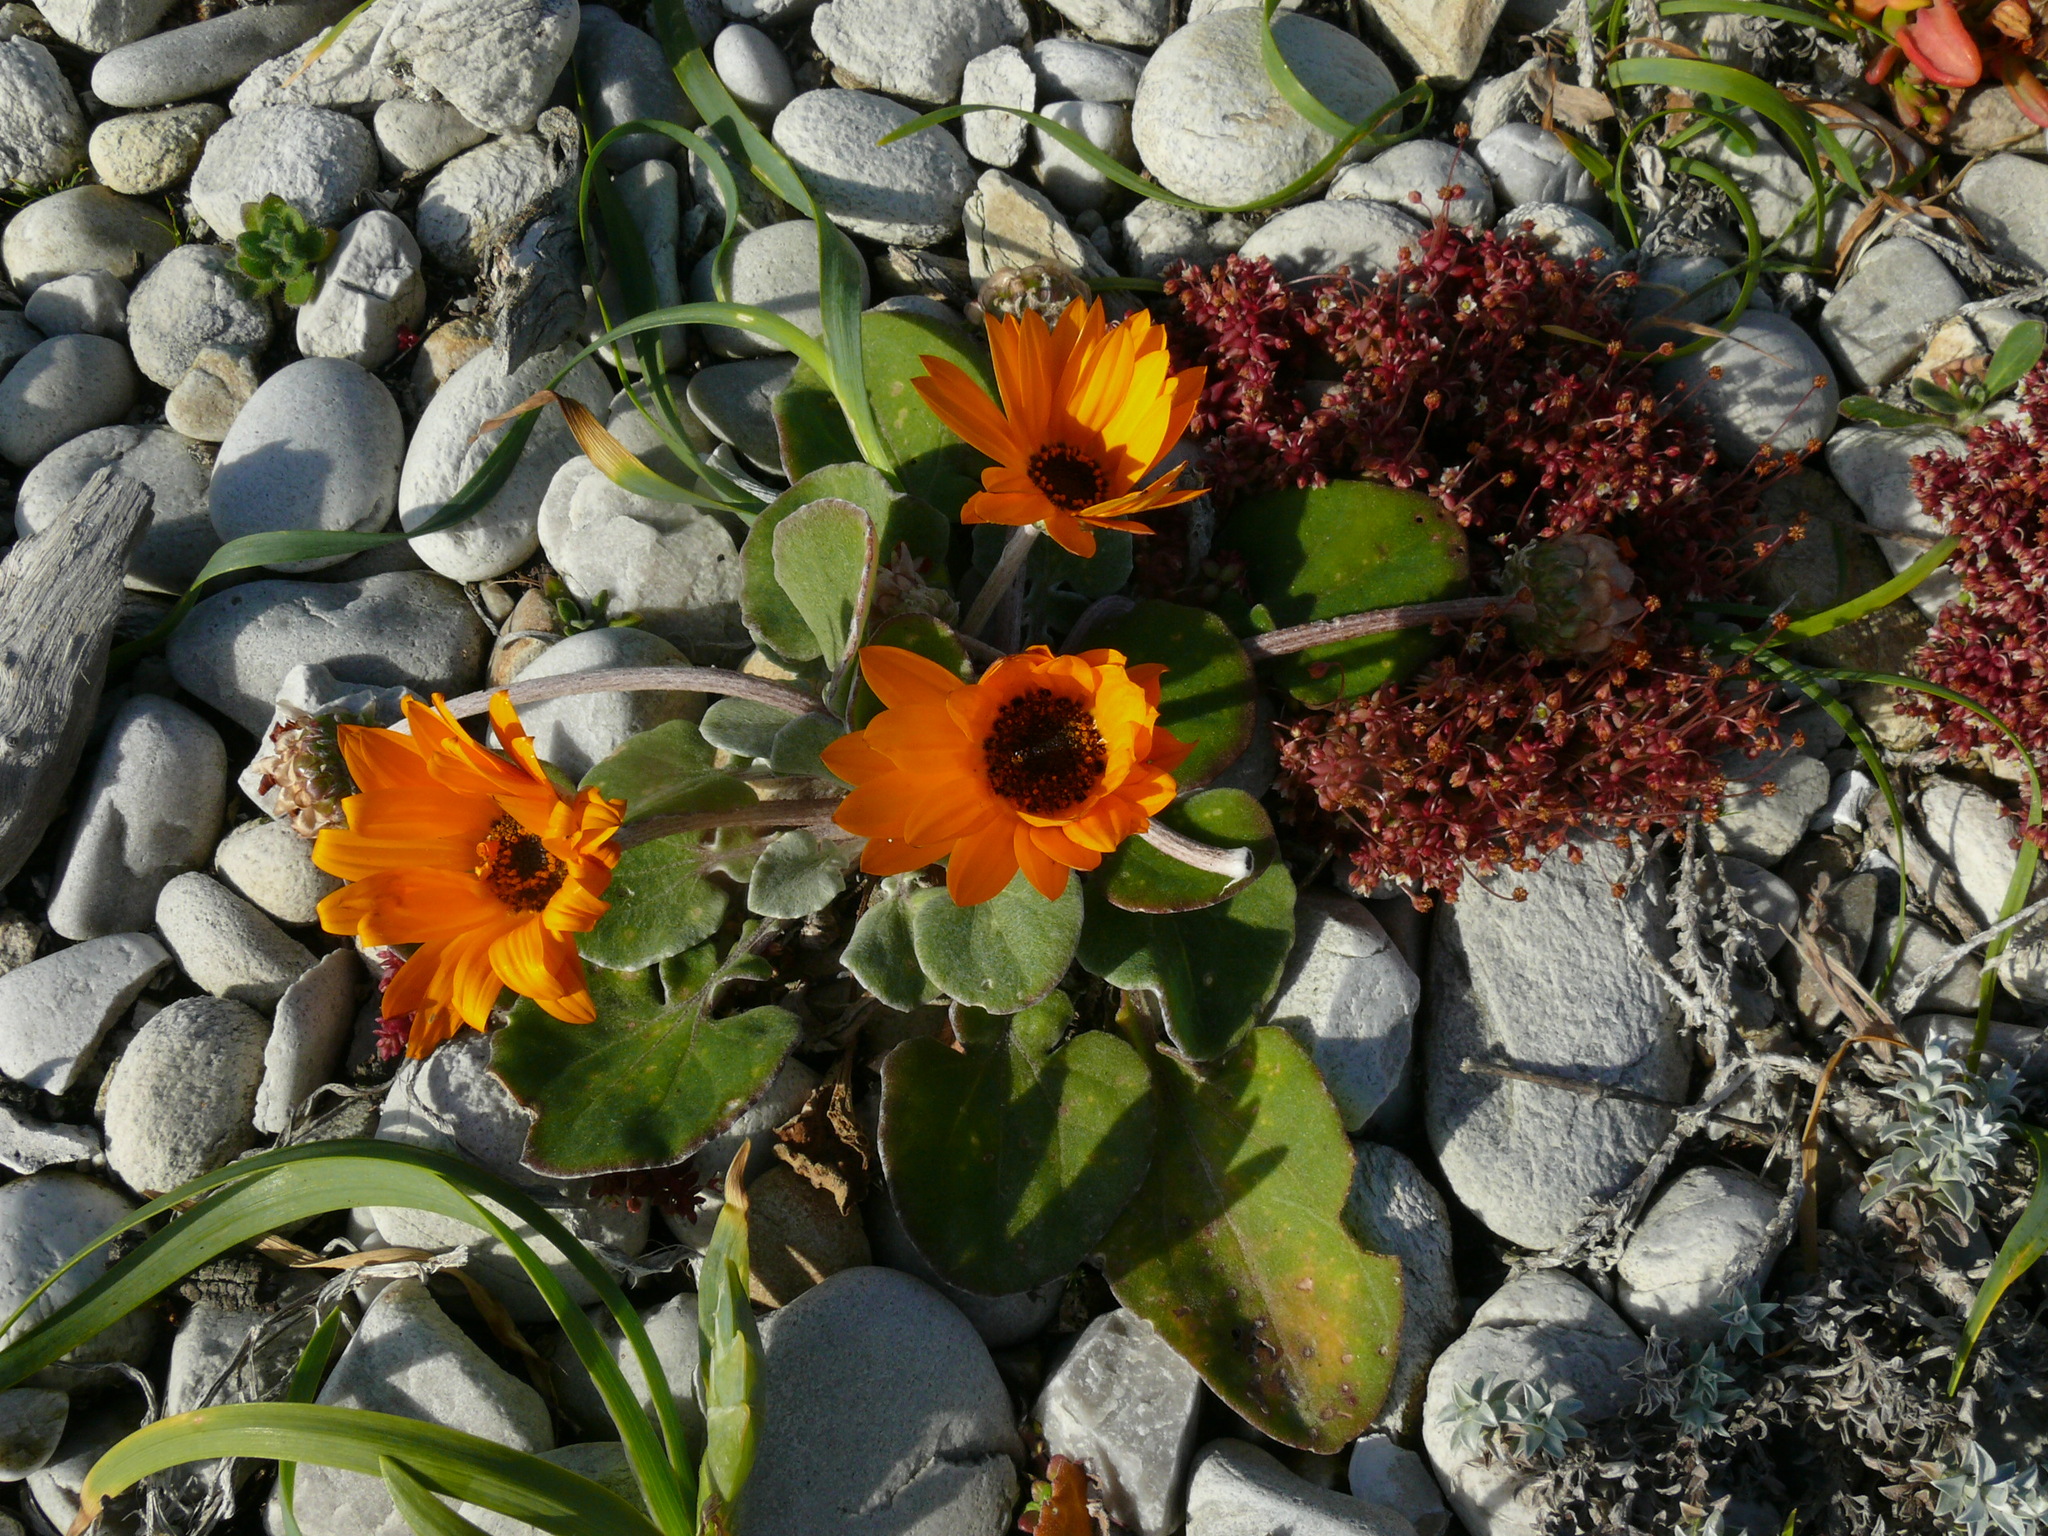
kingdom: Plantae
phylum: Tracheophyta
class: Magnoliopsida
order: Asterales
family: Asteraceae
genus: Arctotis
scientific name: Arctotis acaulis
